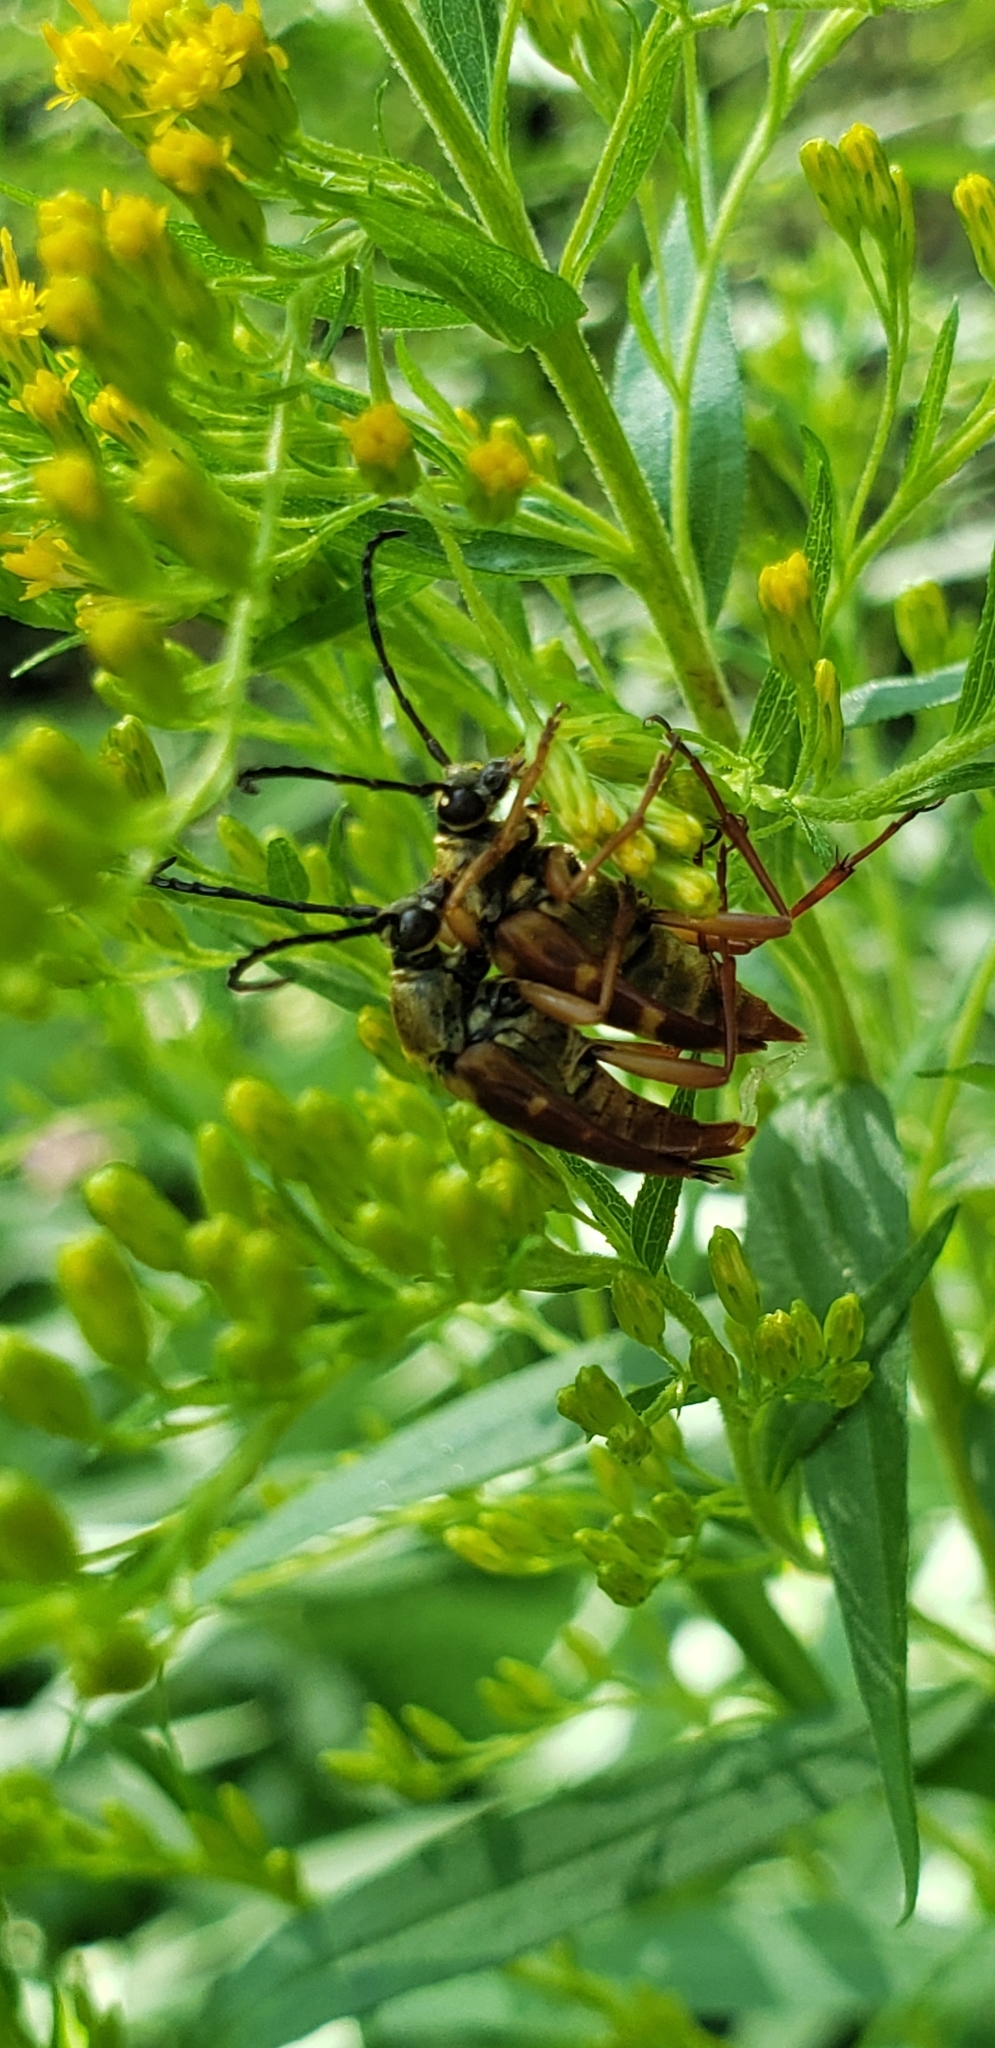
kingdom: Animalia
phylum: Arthropoda
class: Insecta
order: Coleoptera
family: Cerambycidae
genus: Typocerus
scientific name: Typocerus velutinus
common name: Banded longhorn beetle
